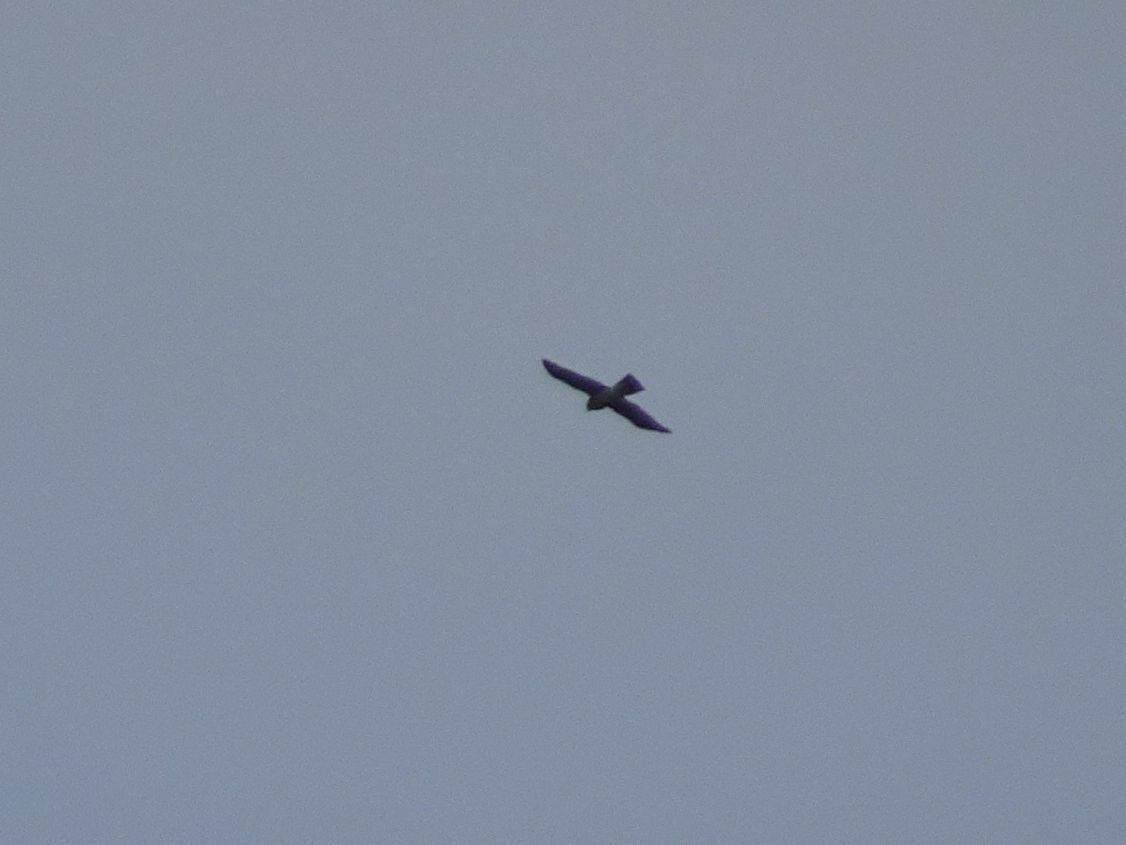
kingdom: Animalia
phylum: Chordata
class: Aves
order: Accipitriformes
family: Accipitridae
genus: Accipiter
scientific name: Accipiter nisus
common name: Eurasian sparrowhawk
